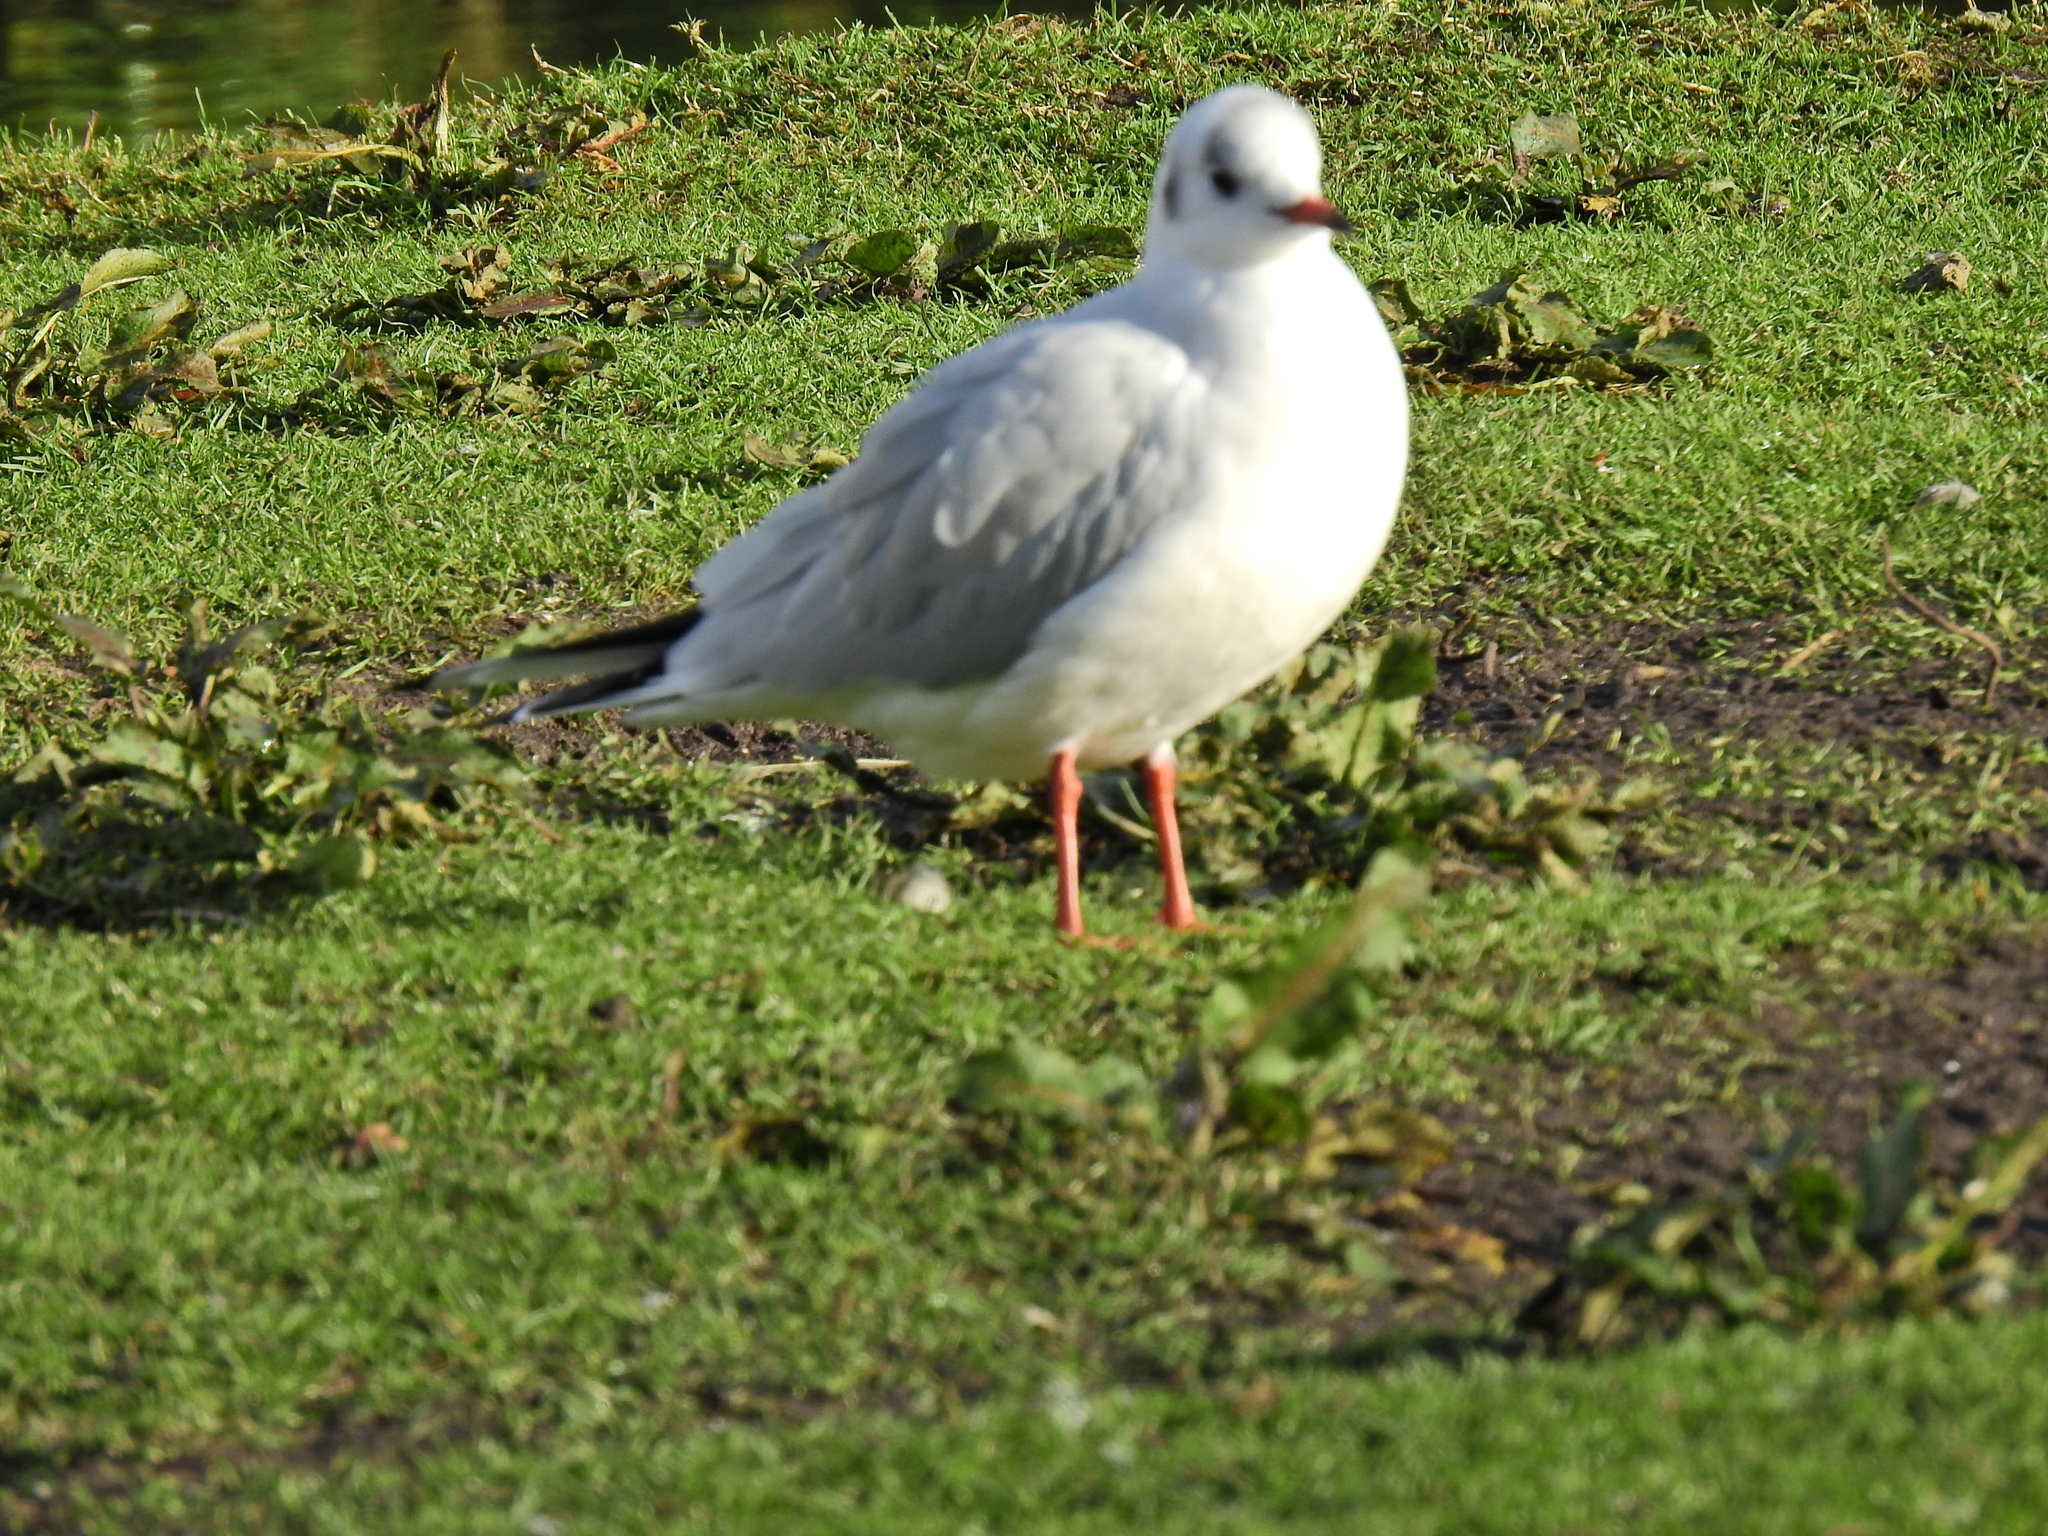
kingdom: Animalia
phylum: Chordata
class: Aves
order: Charadriiformes
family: Laridae
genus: Chroicocephalus
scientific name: Chroicocephalus ridibundus
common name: Black-headed gull
